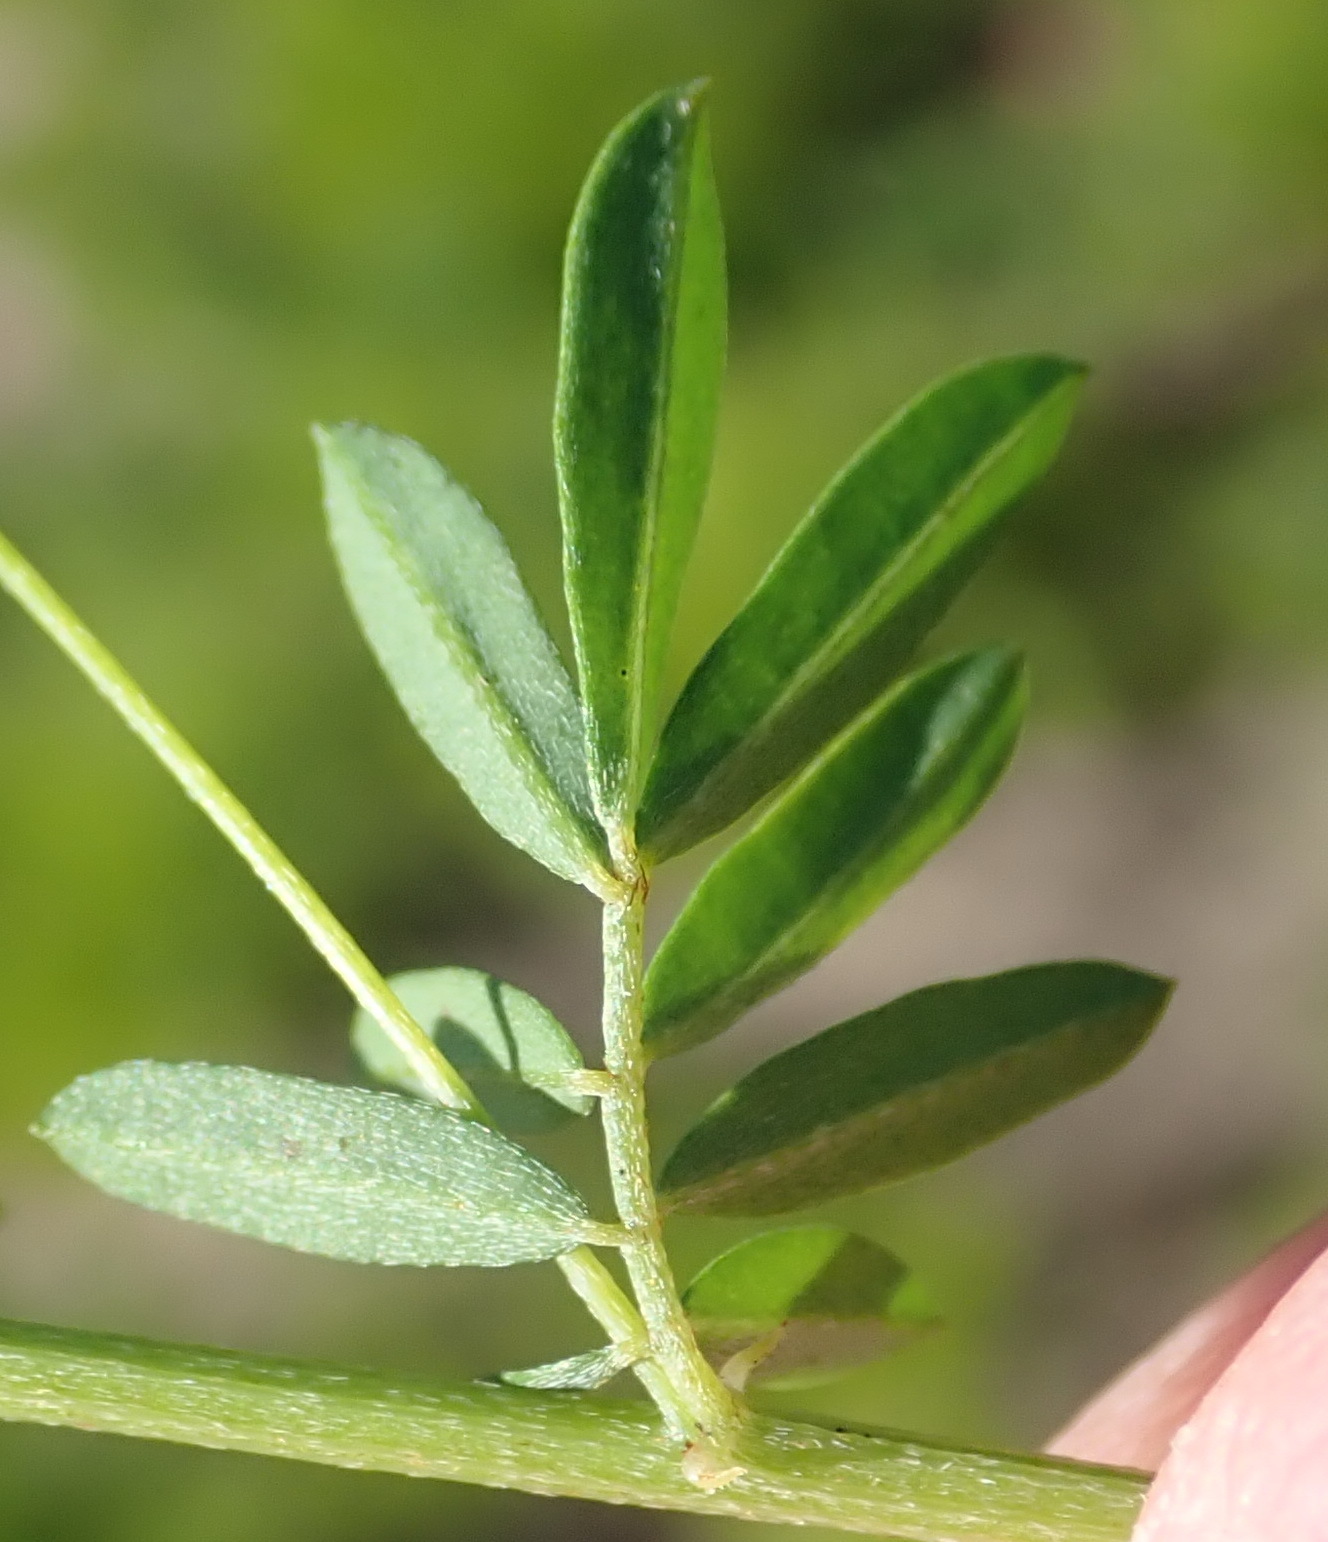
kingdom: Plantae
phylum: Tracheophyta
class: Magnoliopsida
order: Fabales
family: Fabaceae
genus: Indigofera
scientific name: Indigofera verrucosa
